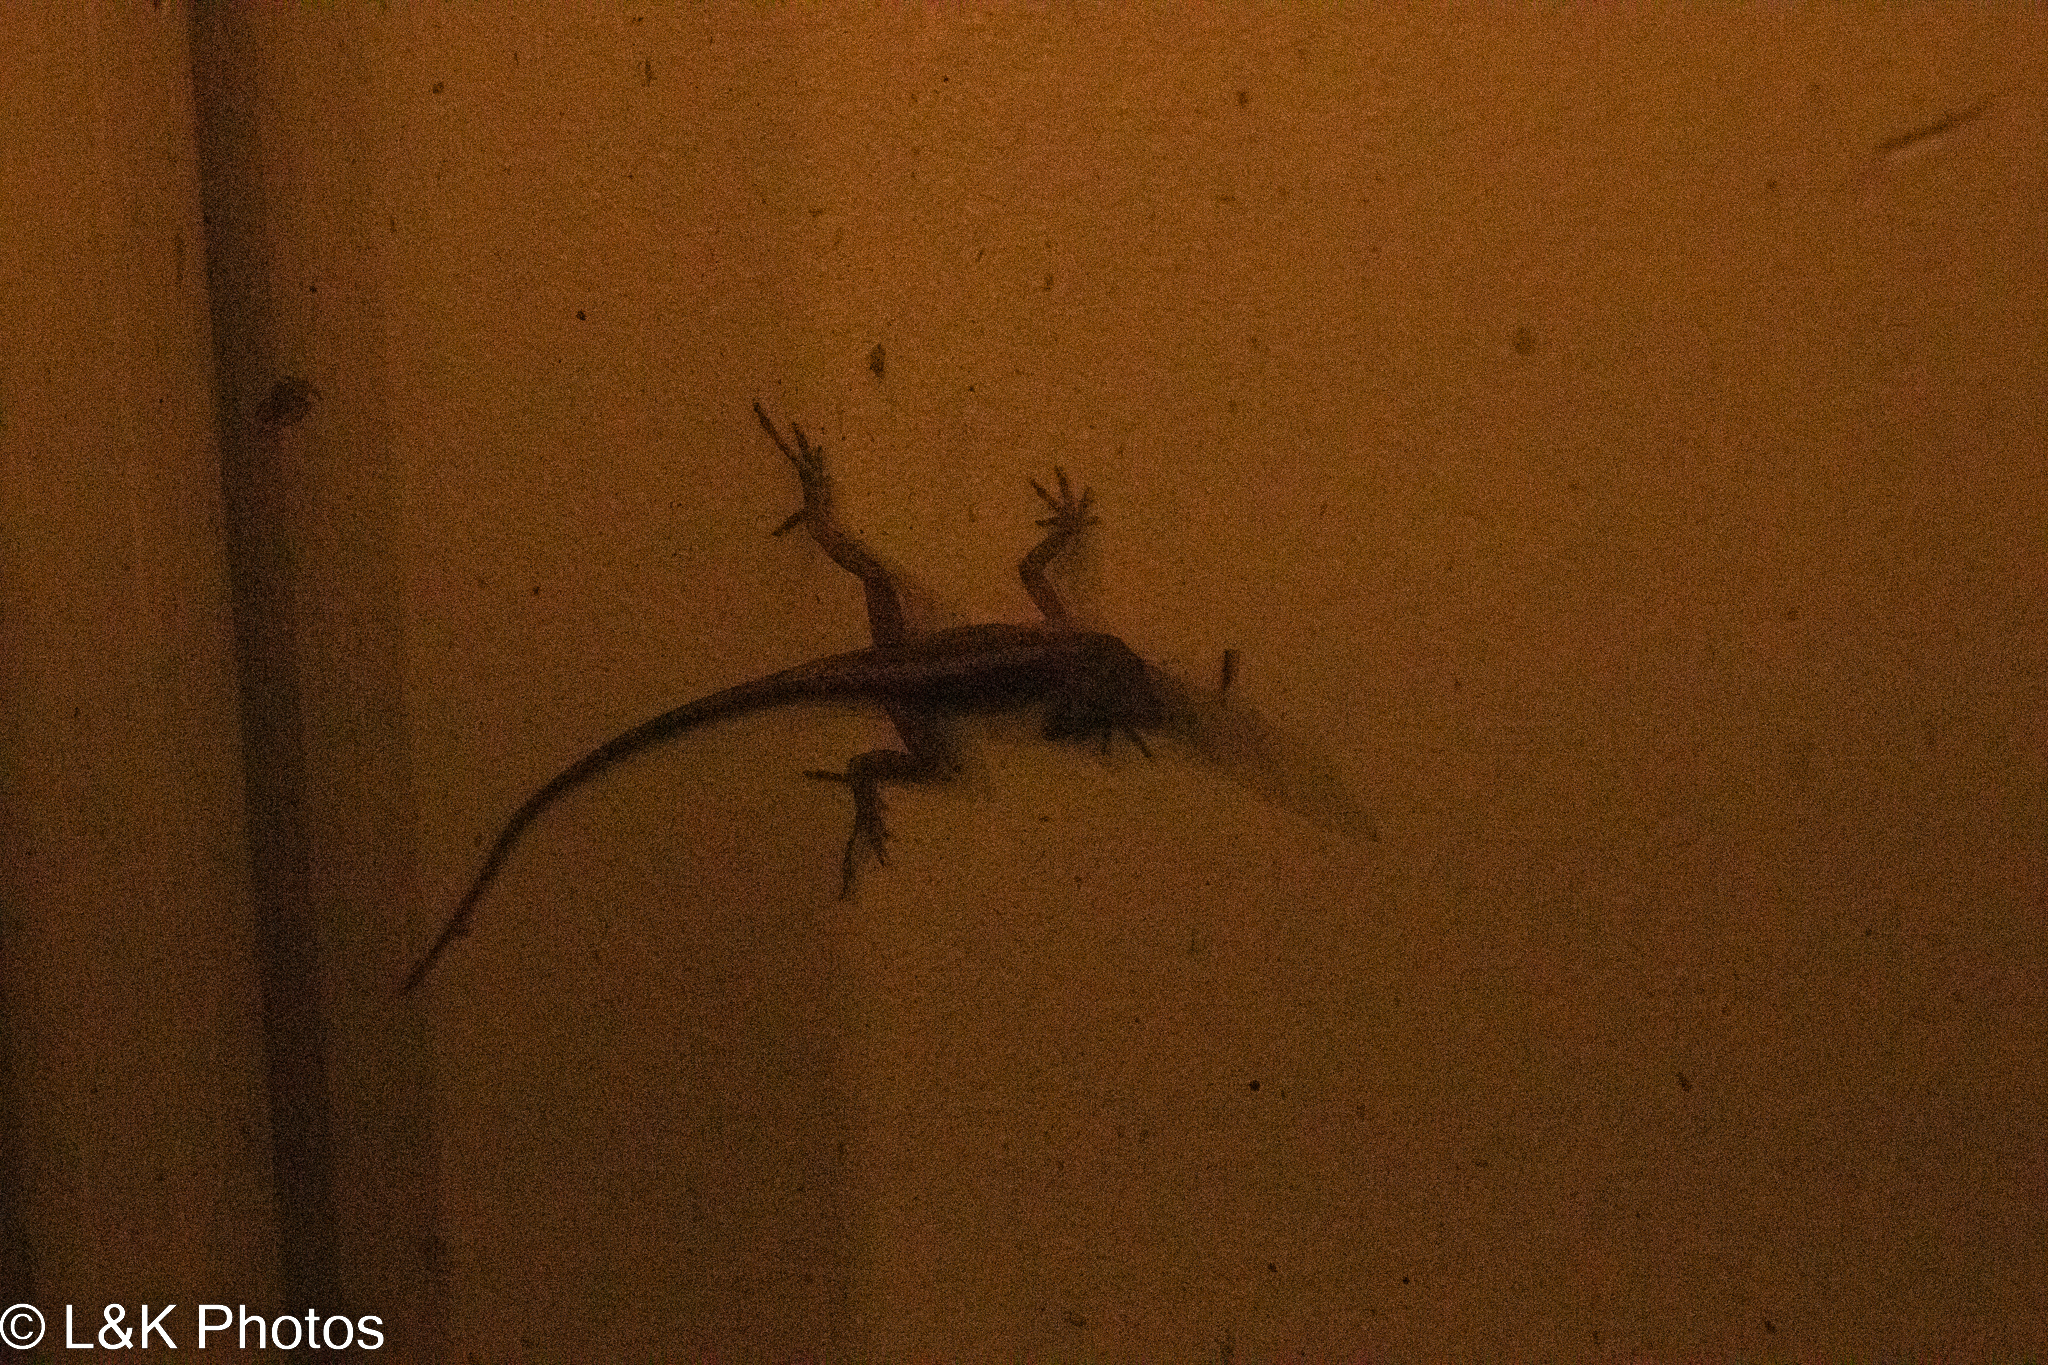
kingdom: Animalia
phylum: Chordata
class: Squamata
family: Dactyloidae
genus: Anolis
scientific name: Anolis sagrei
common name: Brown anole
